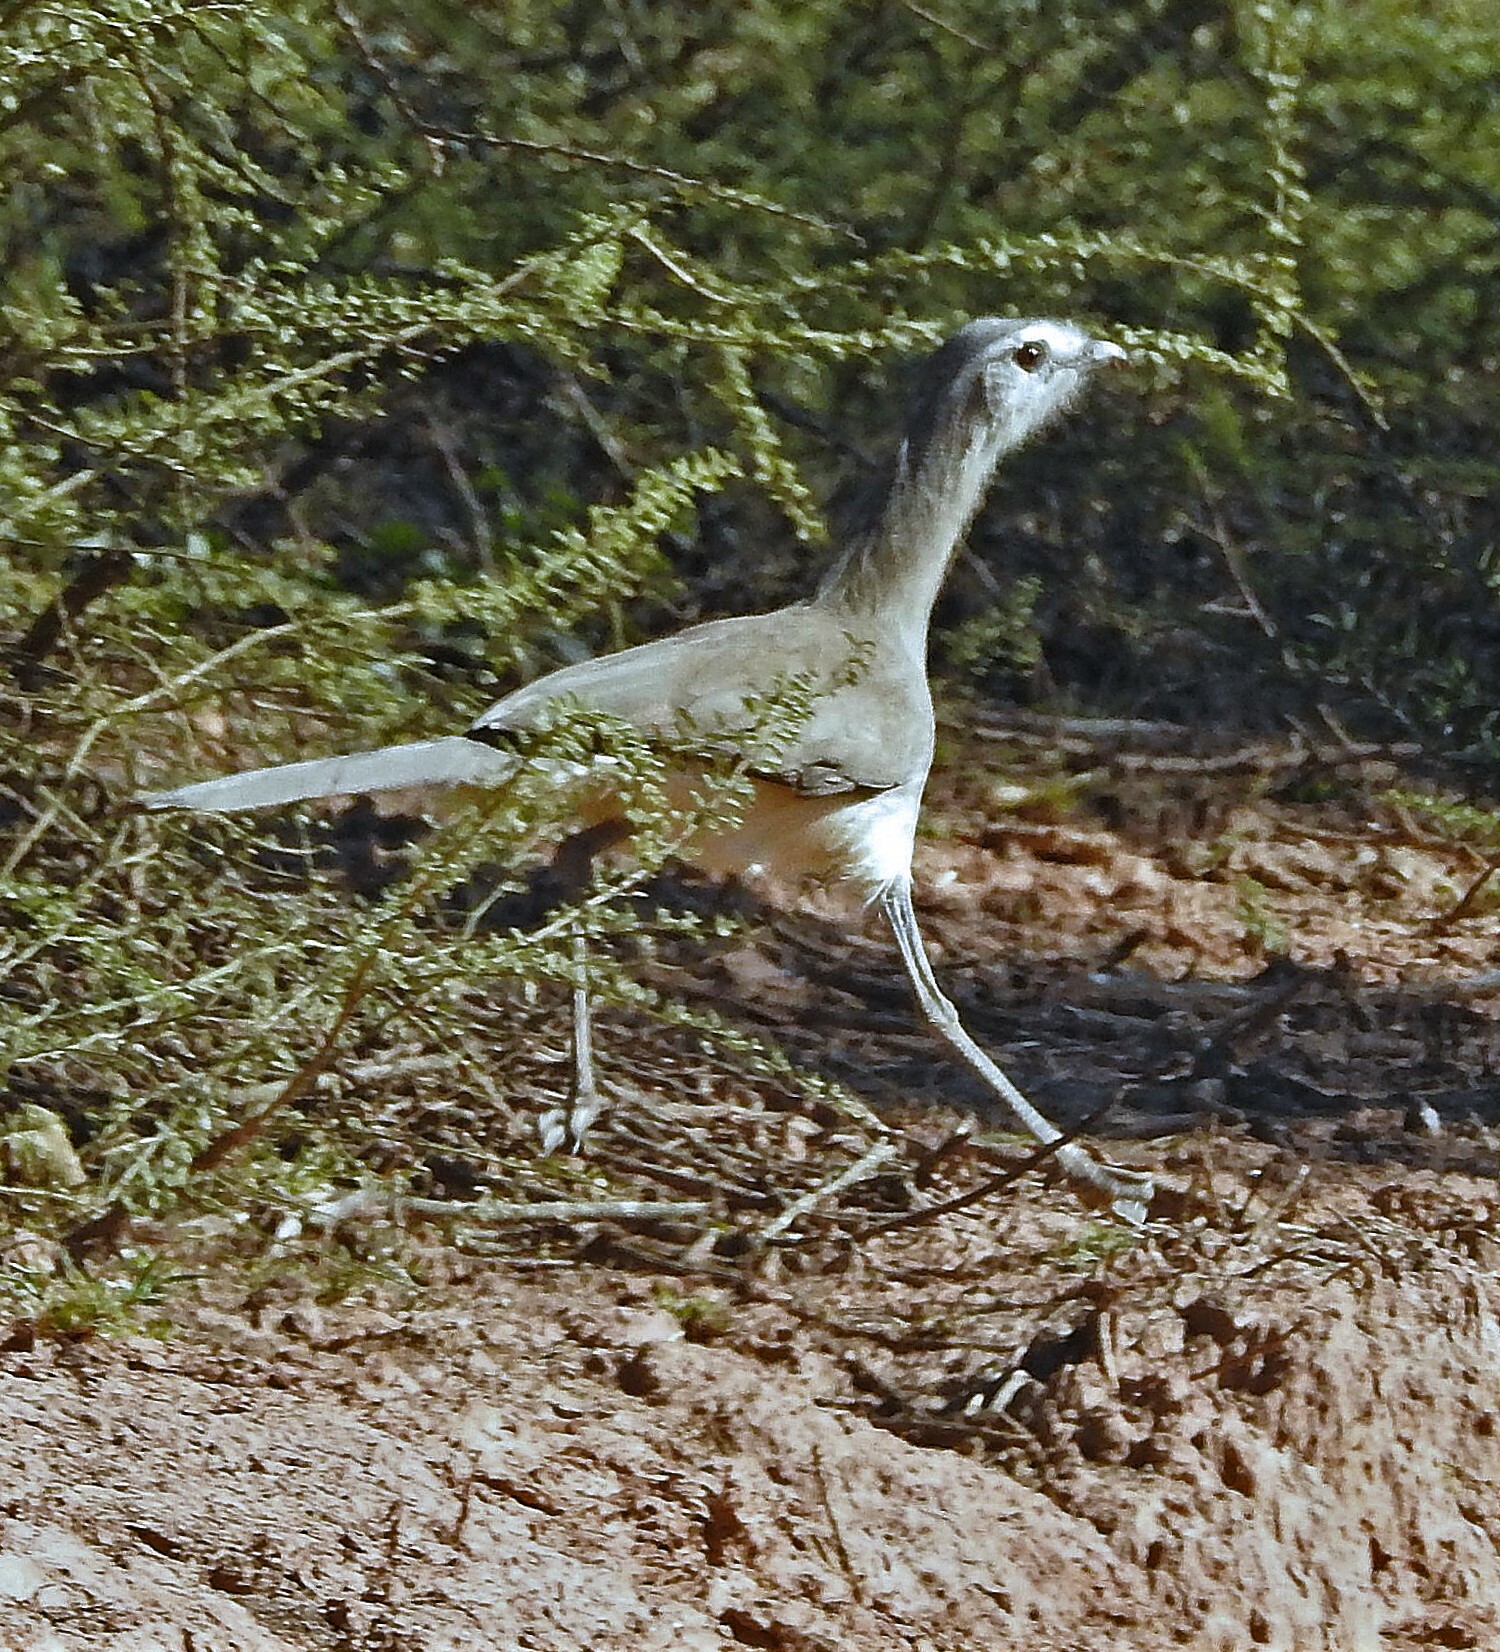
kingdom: Animalia
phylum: Chordata
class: Aves
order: Cariamiformes
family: Cariamidae
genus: Chunga
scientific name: Chunga burmeisteri
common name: Black-legged seriema
